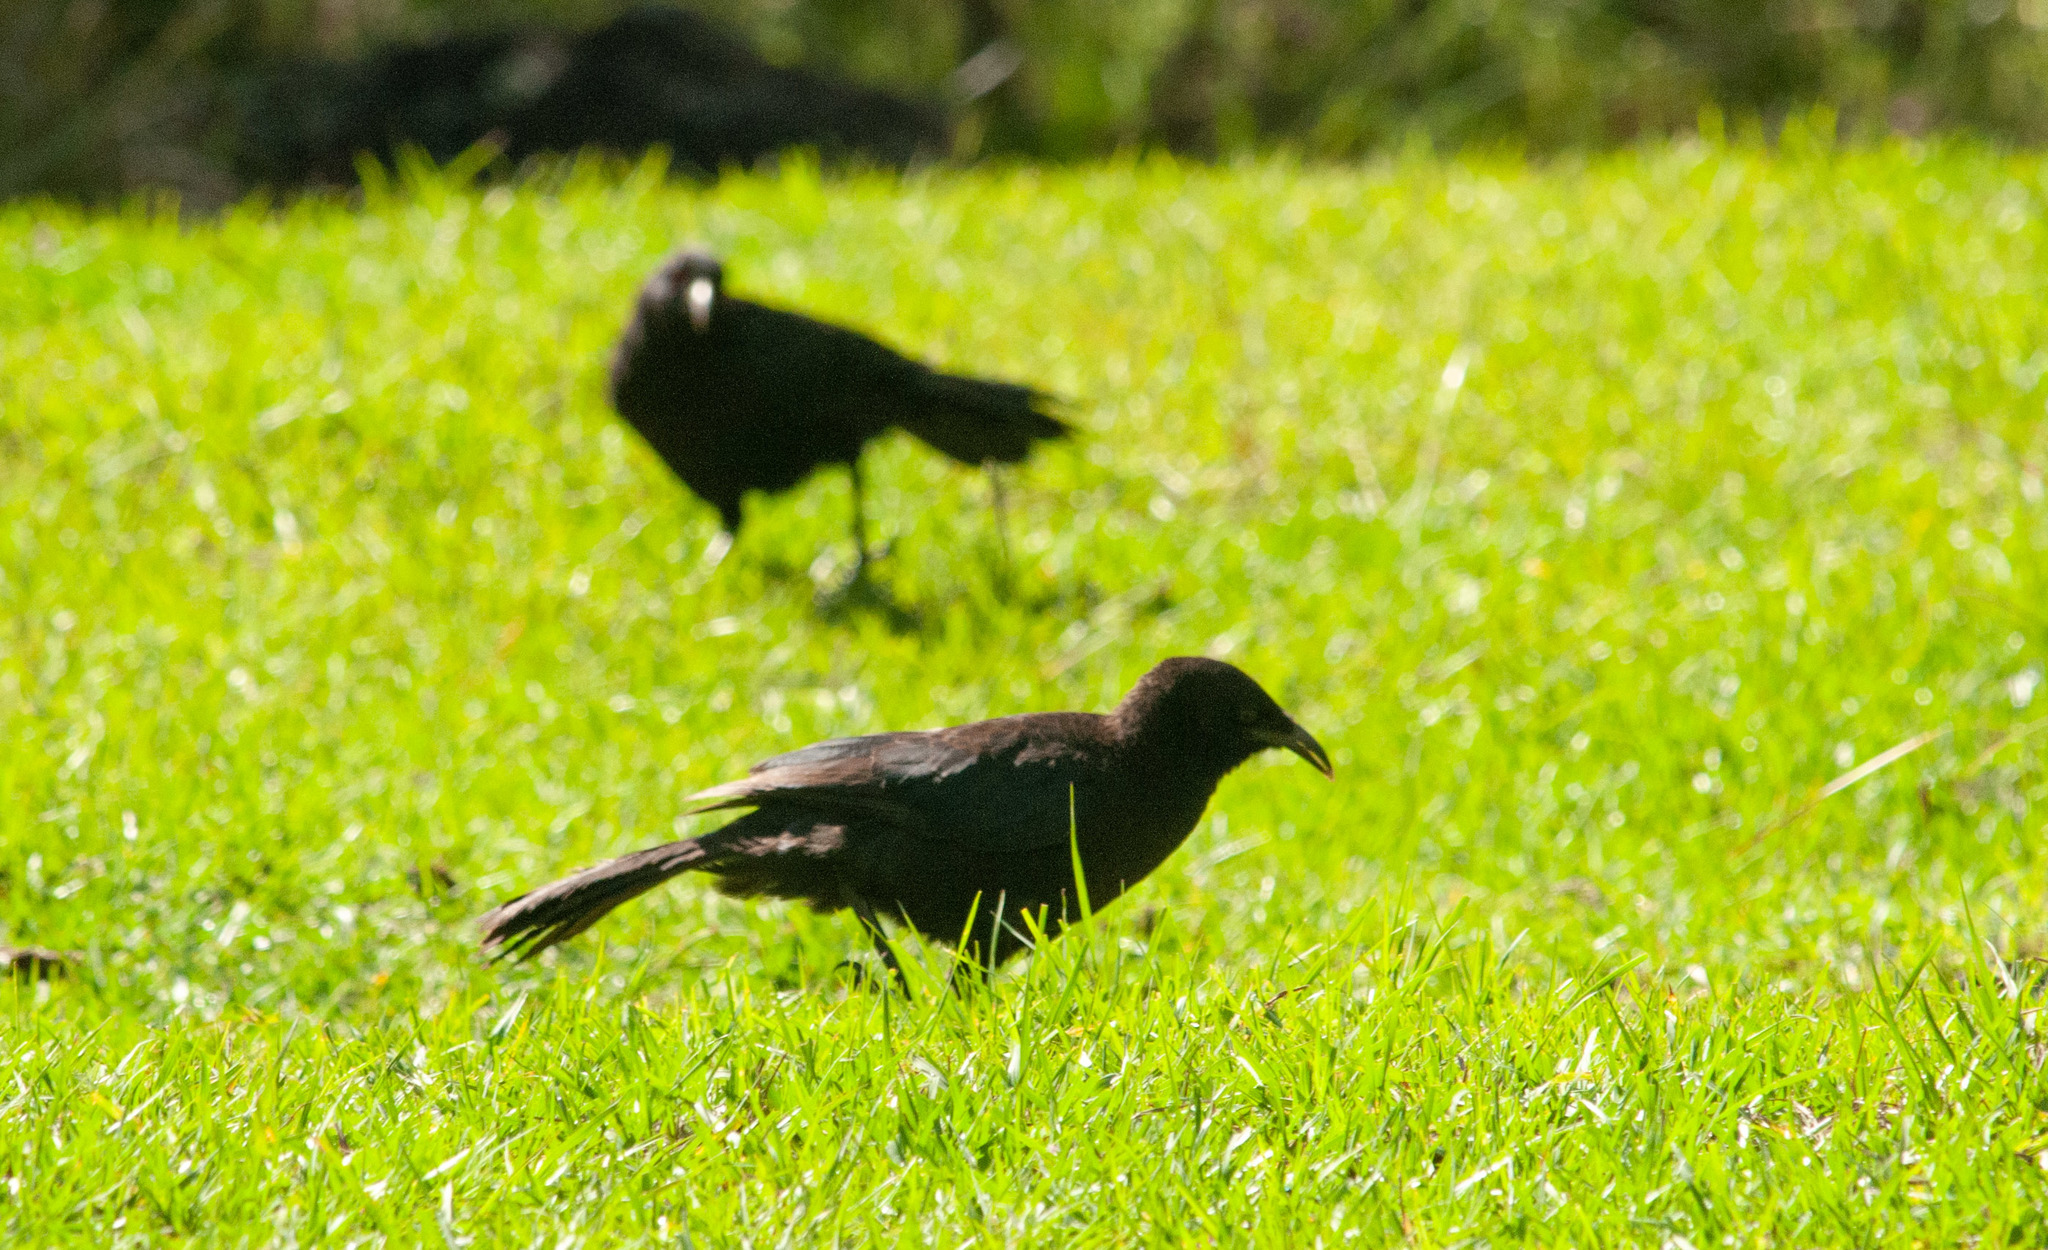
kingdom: Animalia
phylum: Chordata
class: Aves
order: Passeriformes
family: Corcoracidae
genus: Corcorax
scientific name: Corcorax melanoramphos
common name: White-winged chough
